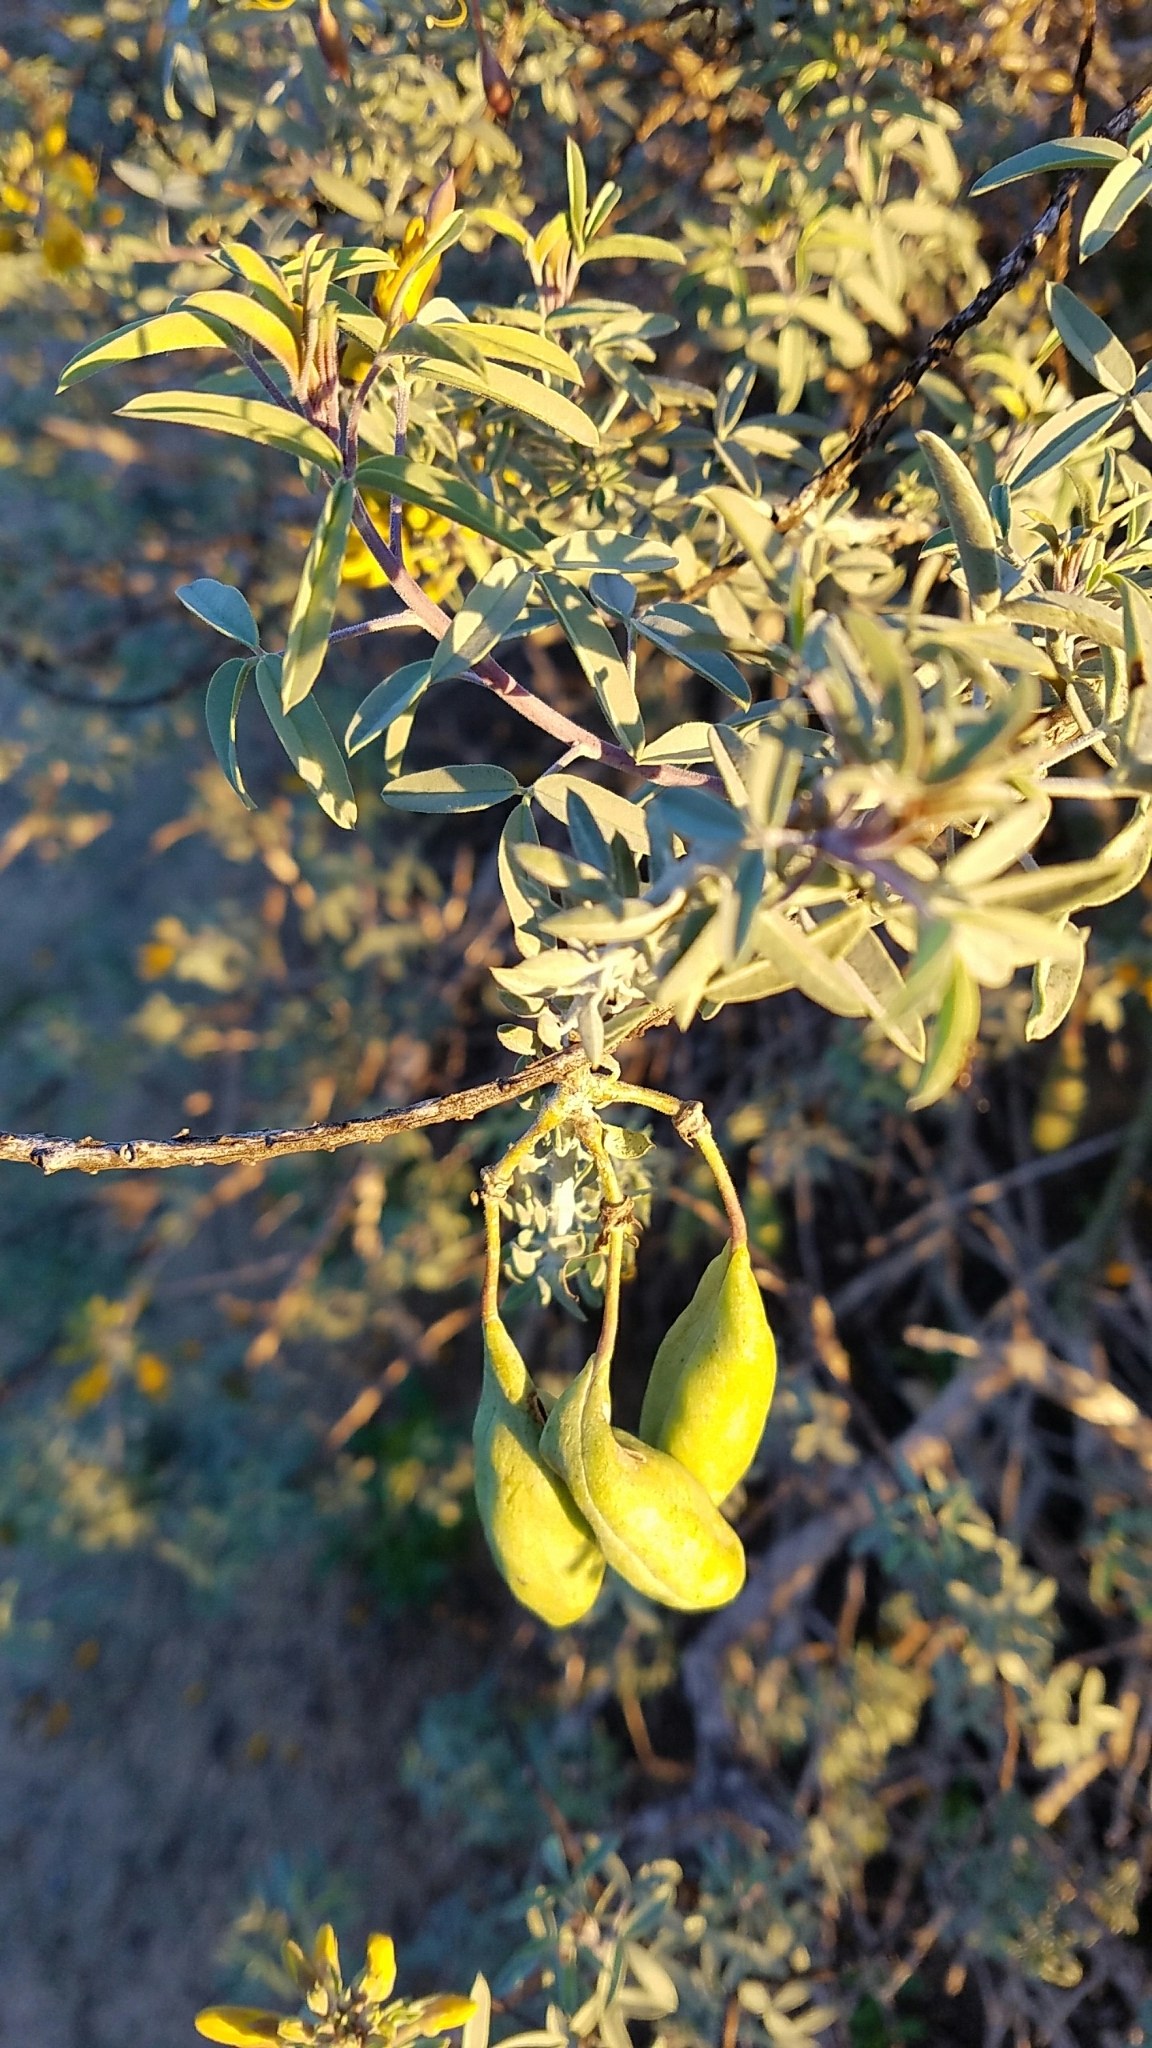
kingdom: Plantae
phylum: Tracheophyta
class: Magnoliopsida
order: Brassicales
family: Cleomaceae
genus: Cleomella
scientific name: Cleomella arborea
